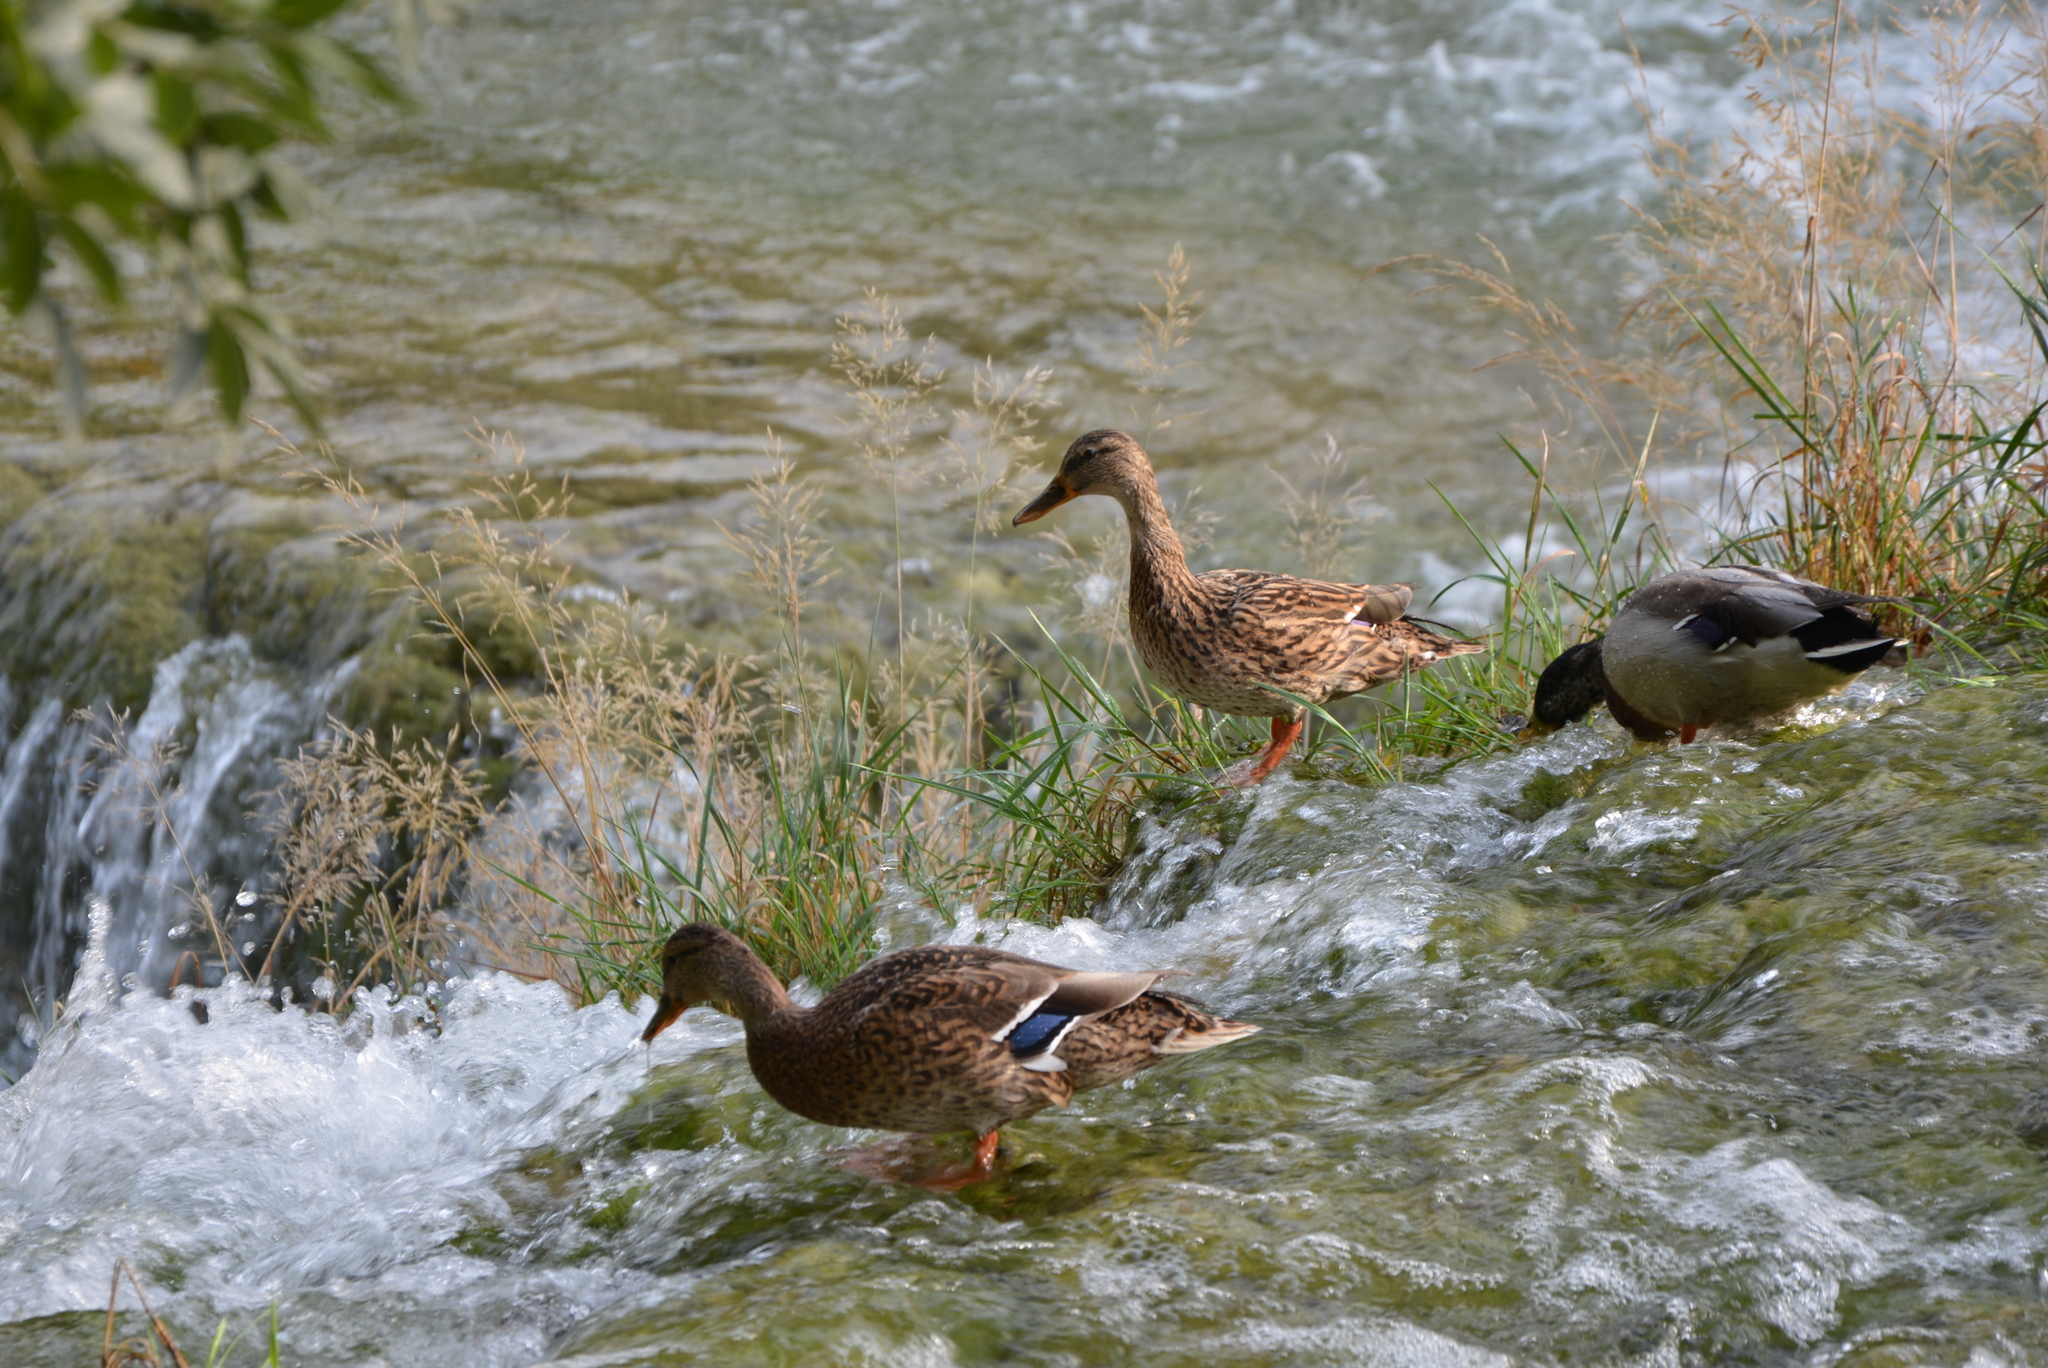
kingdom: Animalia
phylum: Chordata
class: Aves
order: Anseriformes
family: Anatidae
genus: Anas
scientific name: Anas platyrhynchos
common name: Mallard
